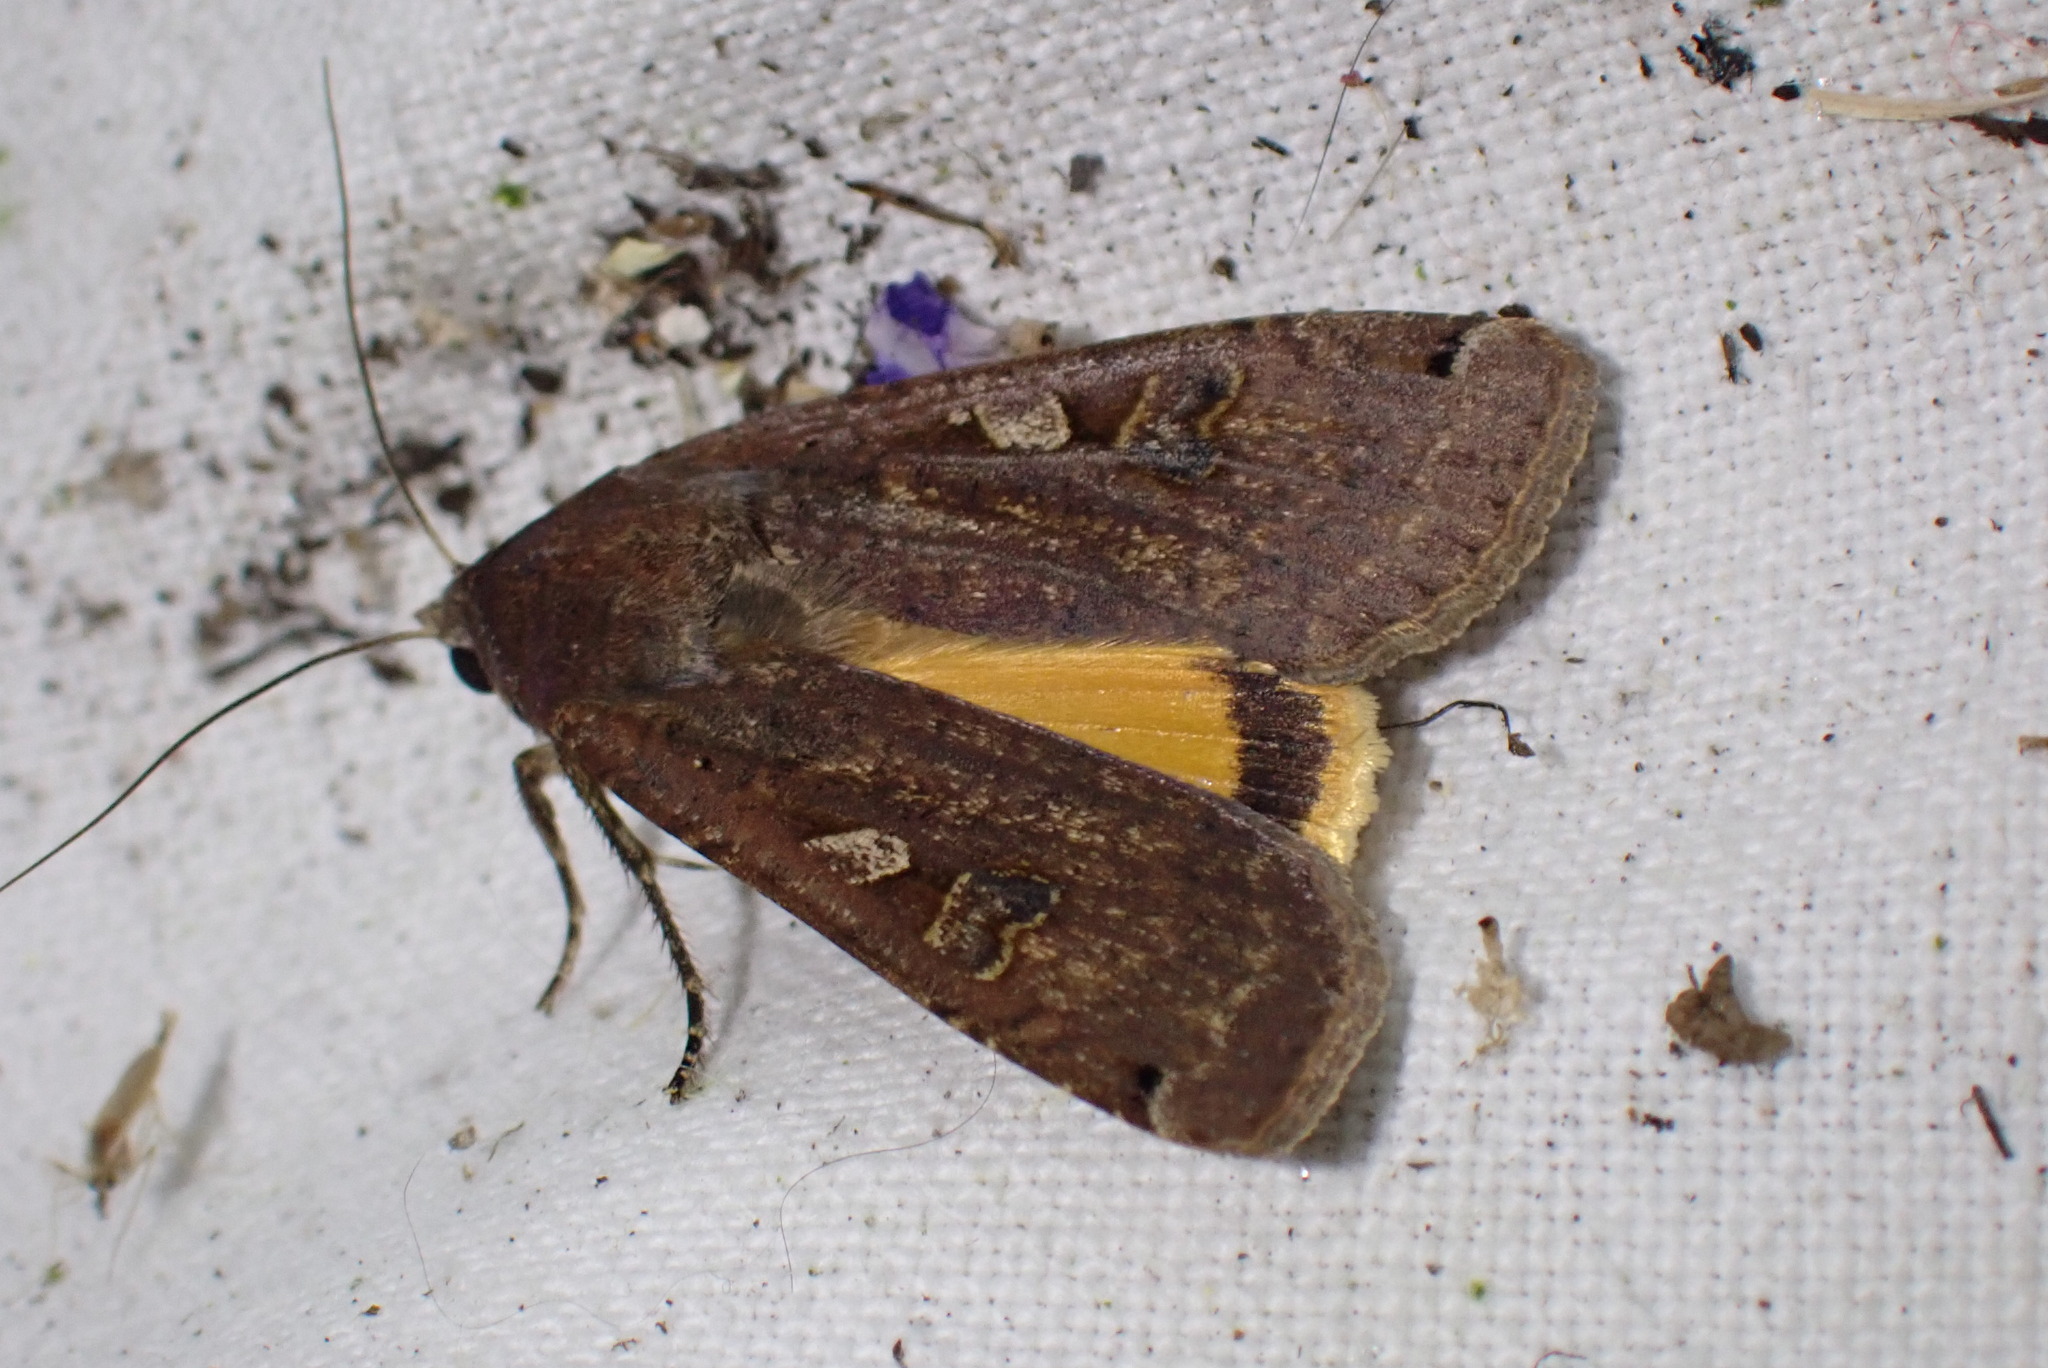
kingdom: Animalia
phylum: Arthropoda
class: Insecta
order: Lepidoptera
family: Noctuidae
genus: Noctua
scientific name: Noctua pronuba
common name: Large yellow underwing
